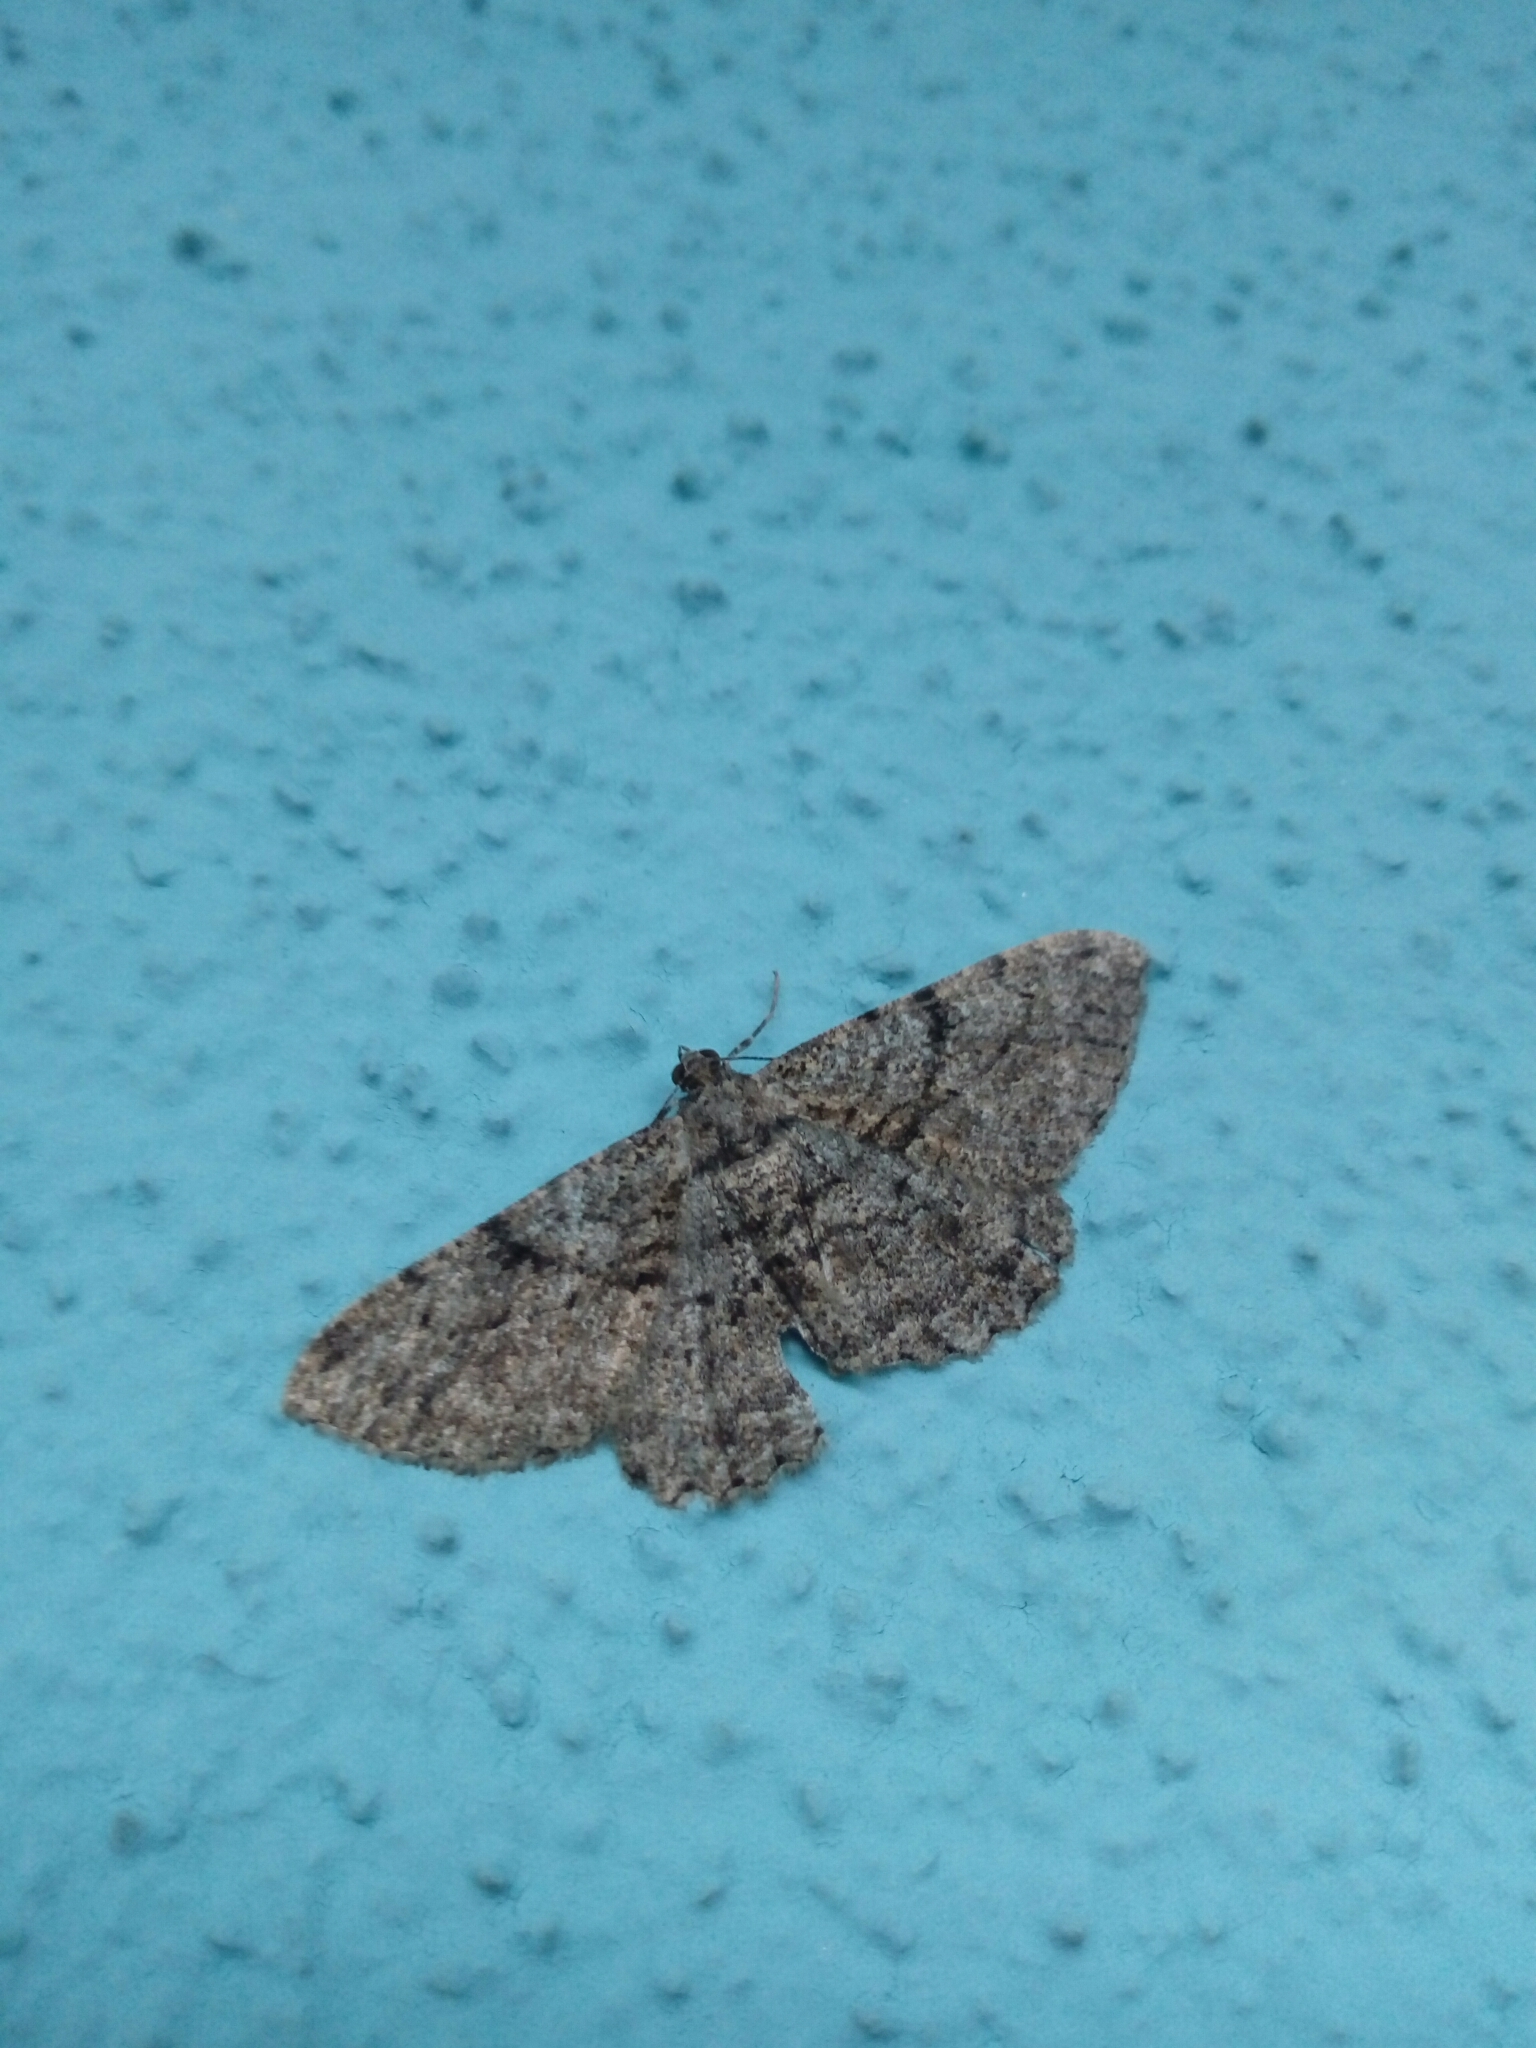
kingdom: Animalia
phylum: Arthropoda
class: Insecta
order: Lepidoptera
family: Geometridae
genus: Peribatodes
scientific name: Peribatodes rhomboidaria
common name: Willow beauty
